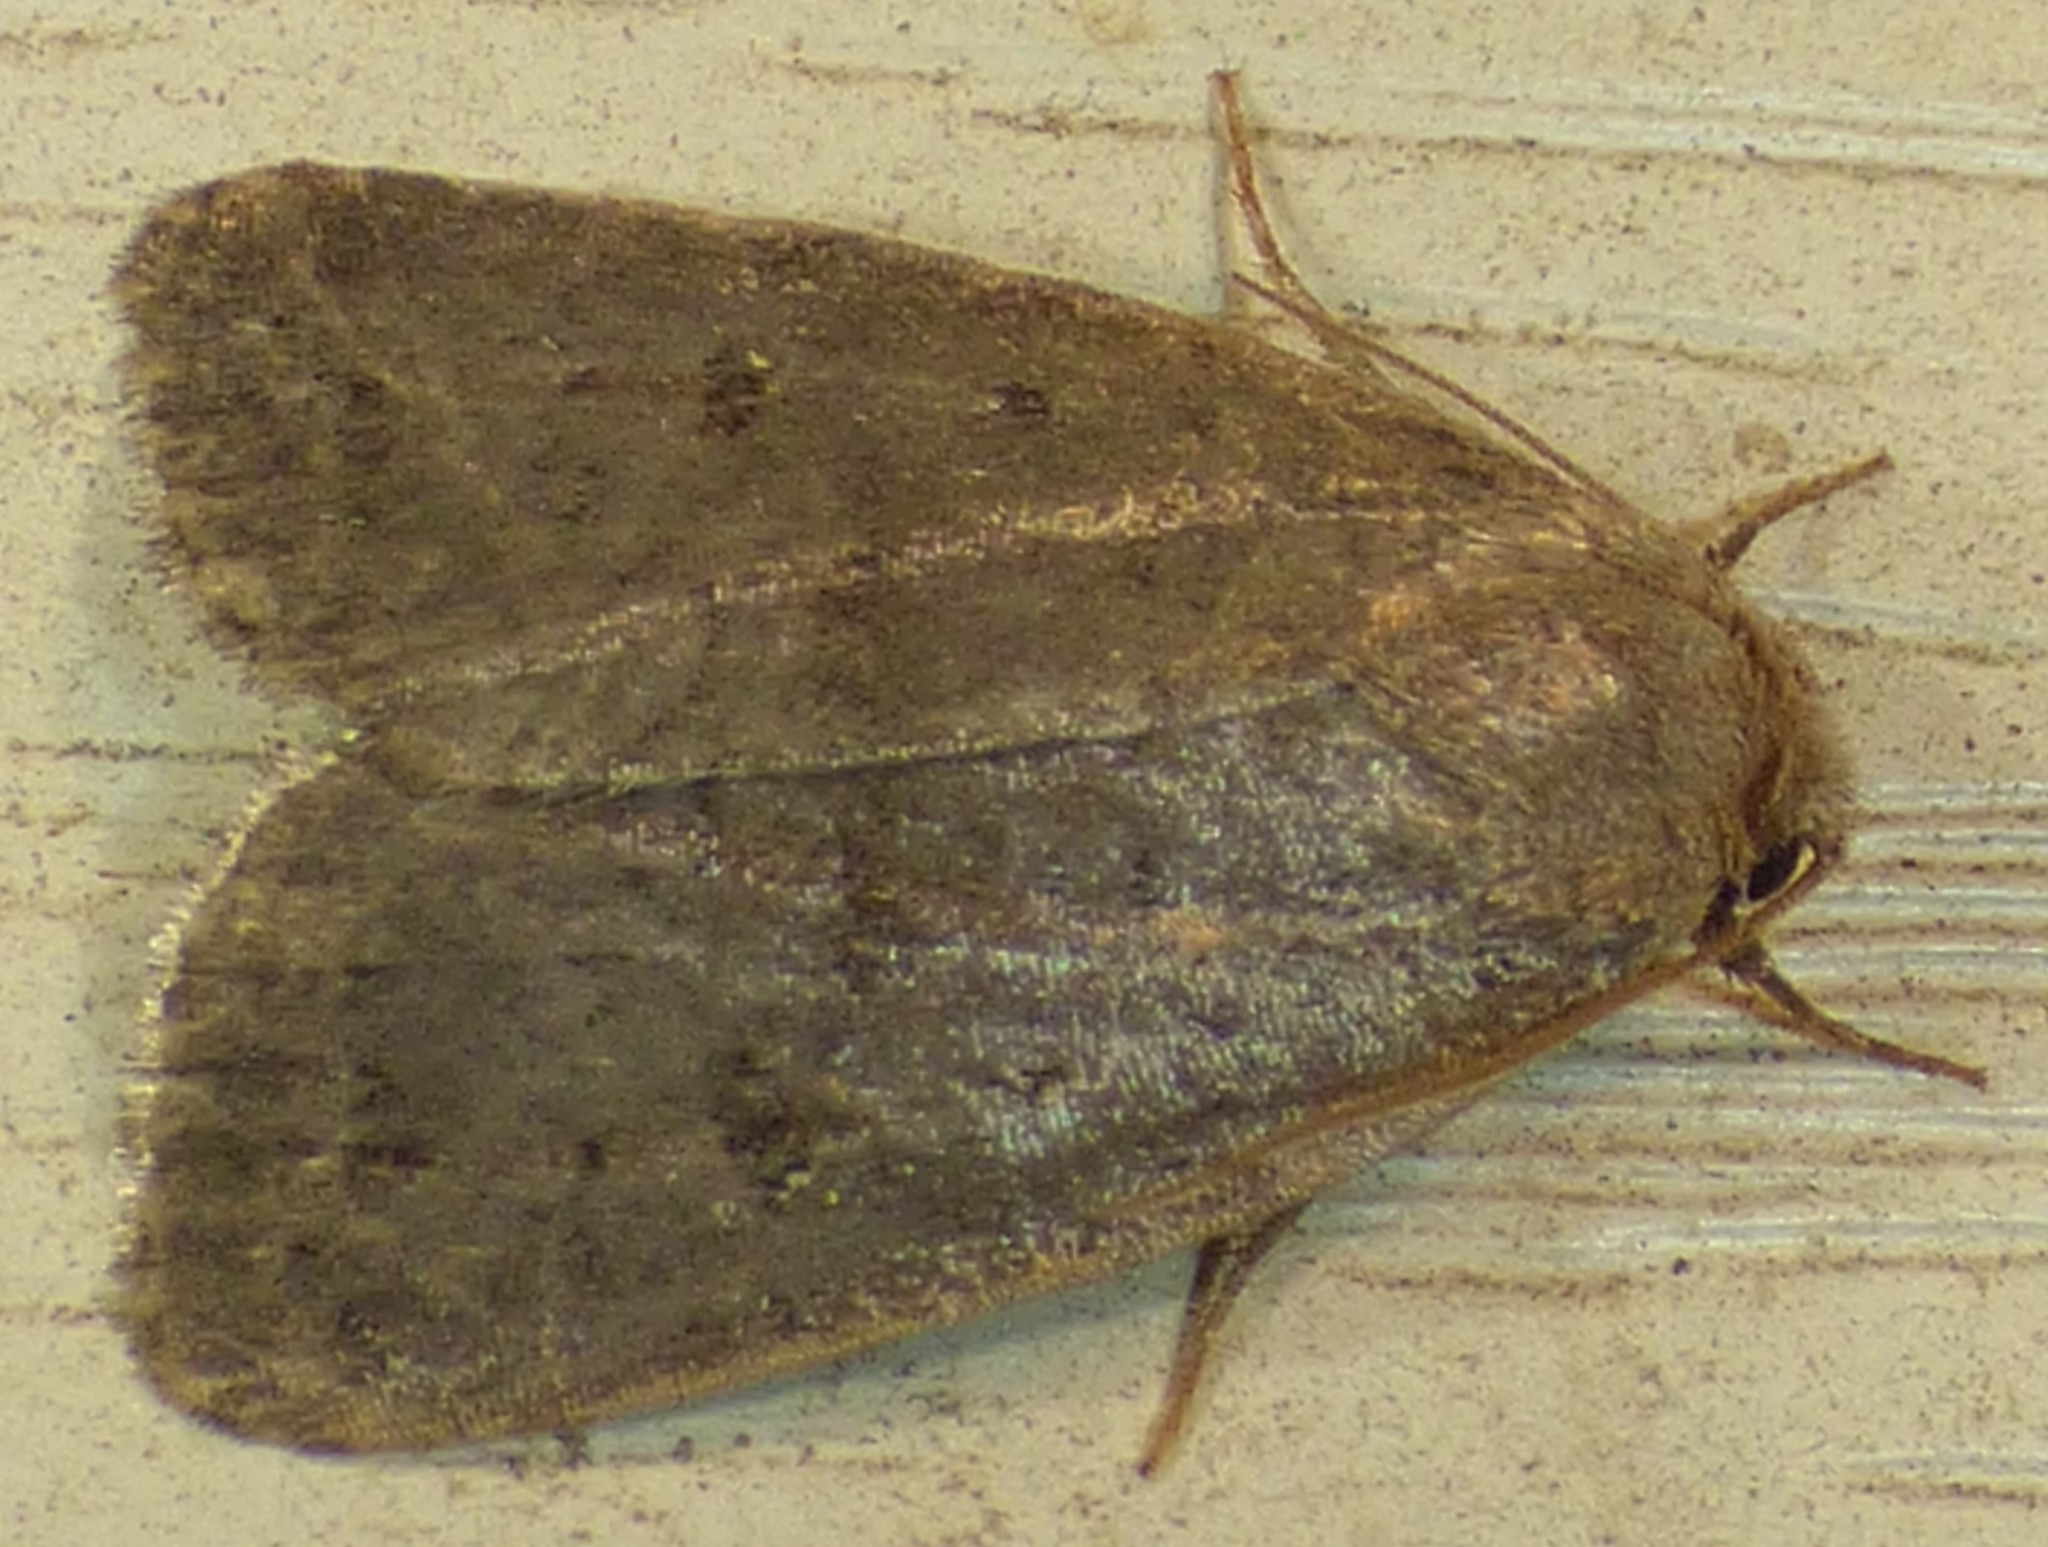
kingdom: Animalia
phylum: Arthropoda
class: Insecta
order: Lepidoptera
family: Noctuidae
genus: Athetis
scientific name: Athetis tarda
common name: Slowpoke moth
